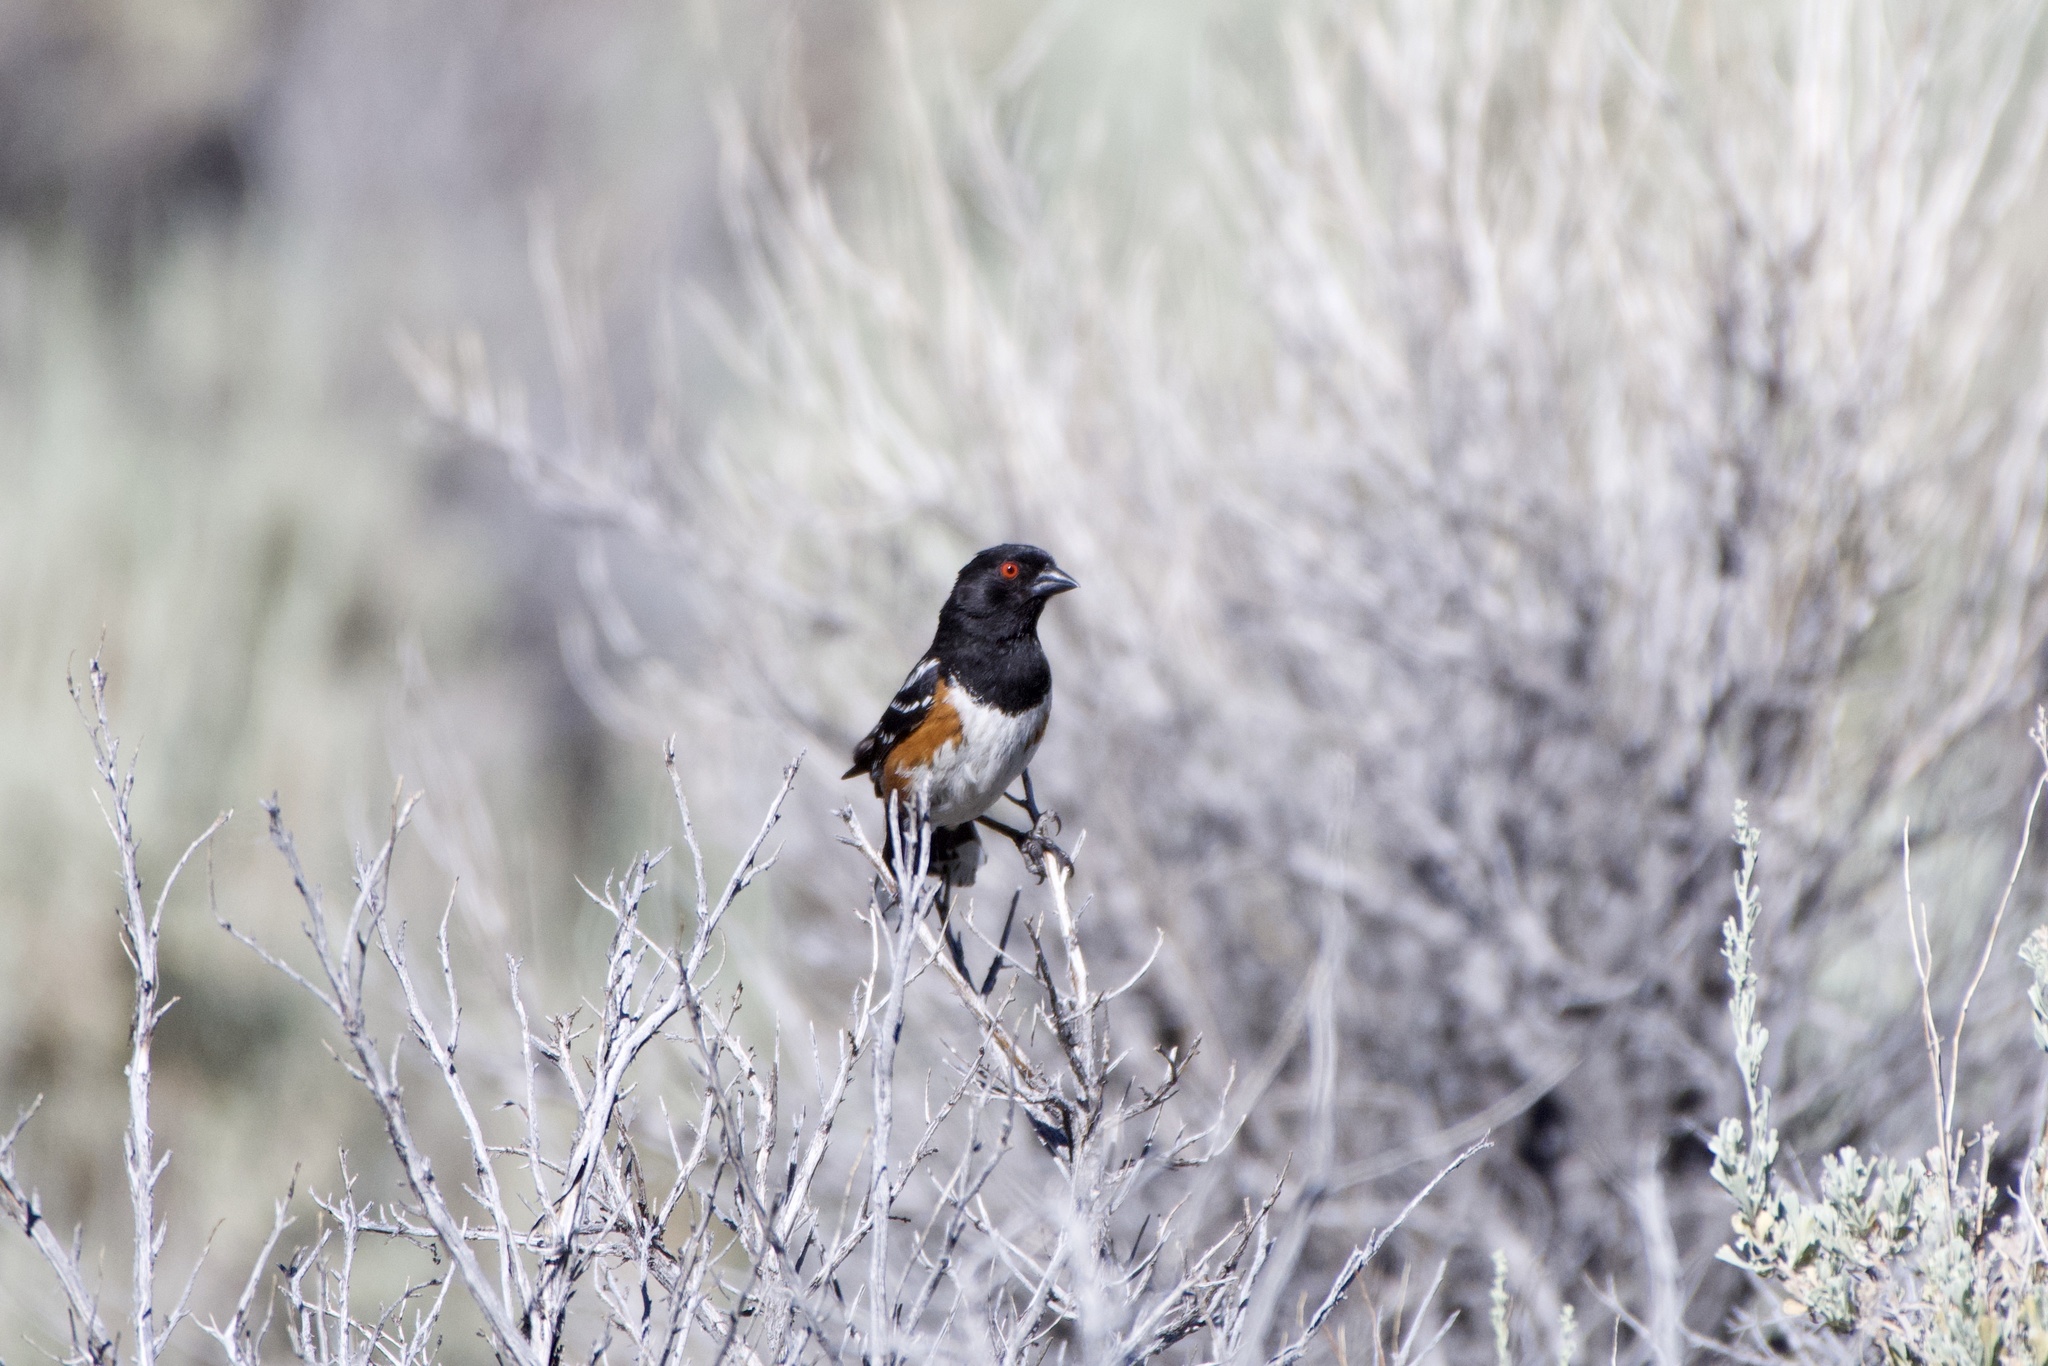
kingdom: Animalia
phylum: Chordata
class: Aves
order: Passeriformes
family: Passerellidae
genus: Pipilo
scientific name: Pipilo maculatus
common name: Spotted towhee
